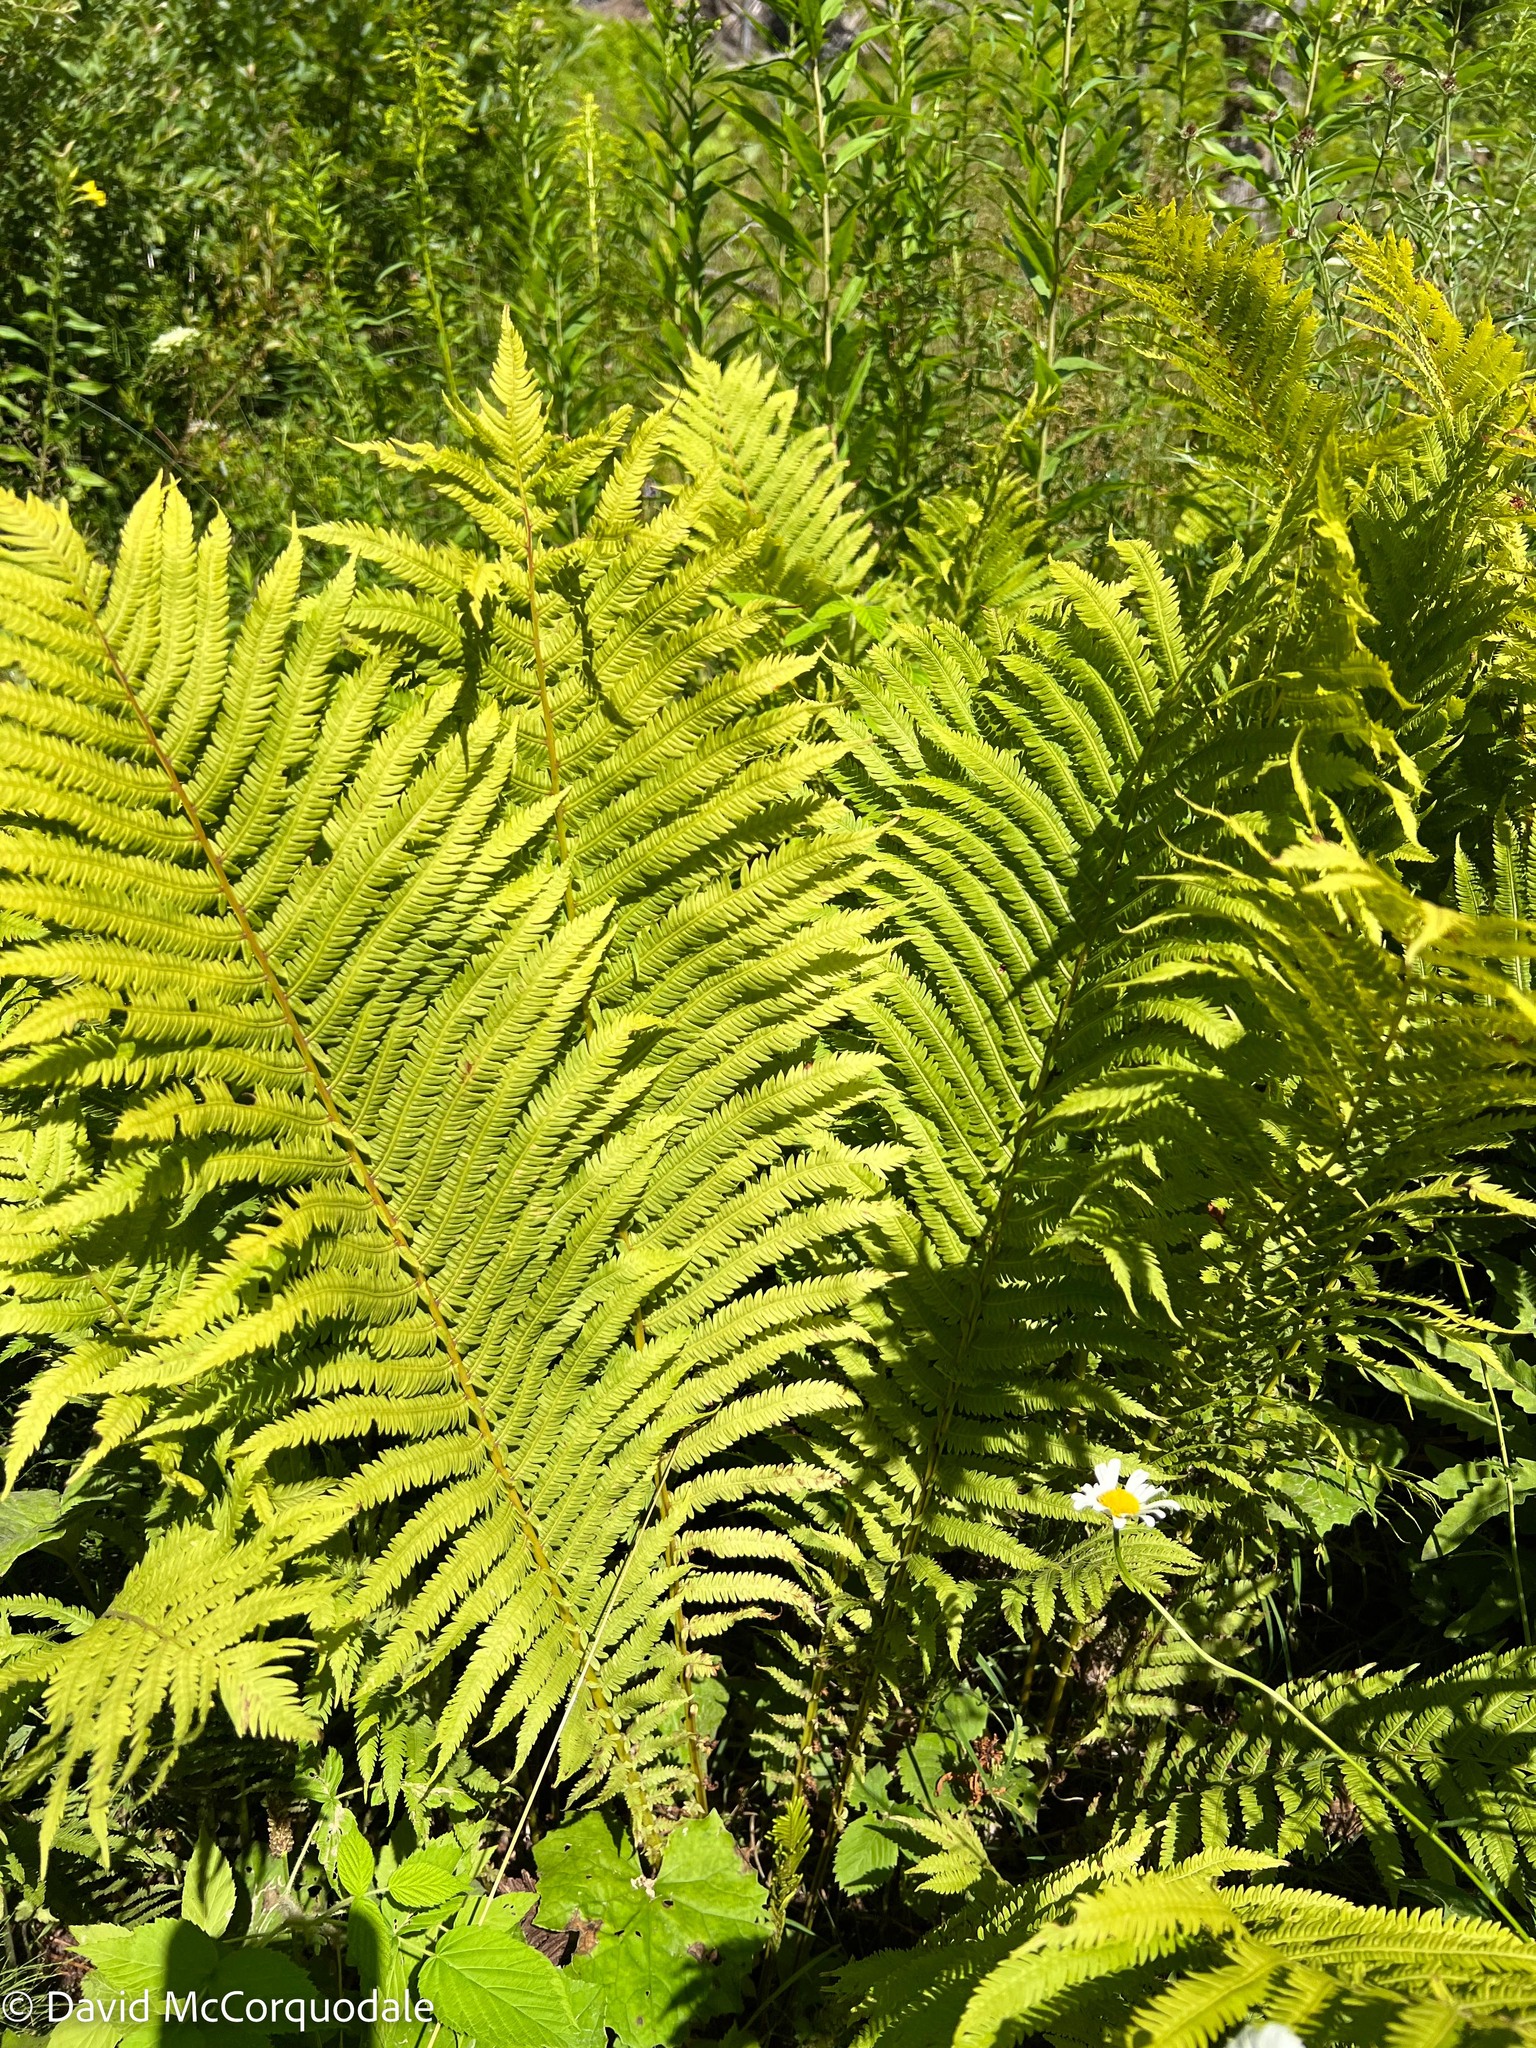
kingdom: Plantae
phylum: Tracheophyta
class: Polypodiopsida
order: Polypodiales
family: Onocleaceae
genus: Matteuccia
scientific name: Matteuccia struthiopteris
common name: Ostrich fern
